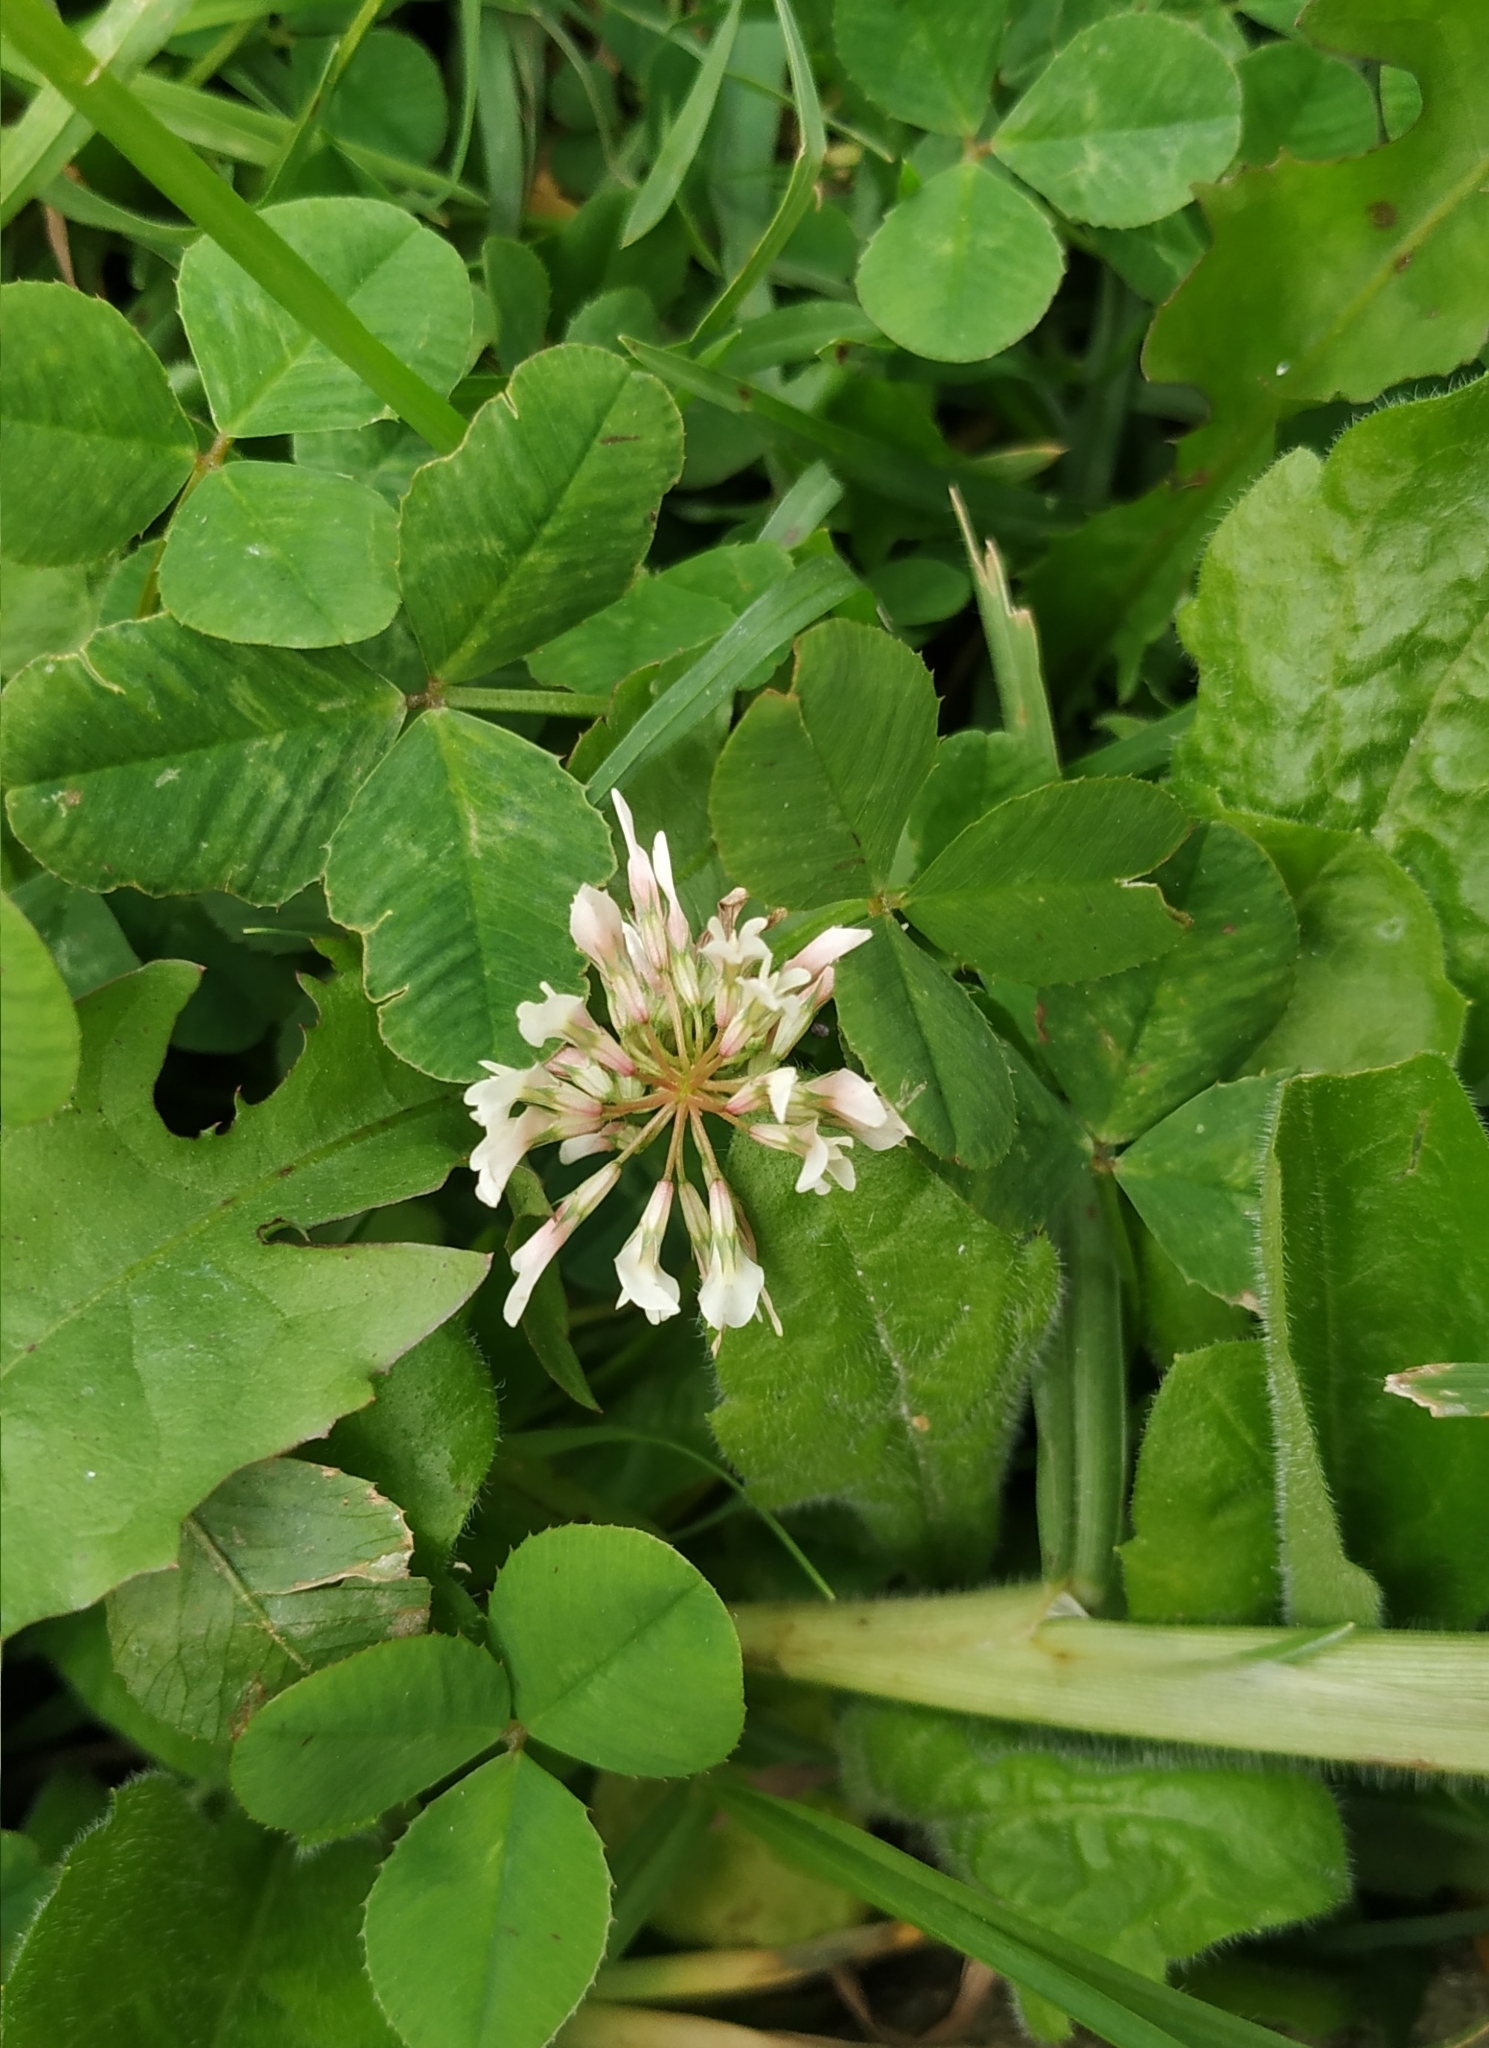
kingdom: Plantae
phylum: Tracheophyta
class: Magnoliopsida
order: Fabales
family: Fabaceae
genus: Trifolium
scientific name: Trifolium repens
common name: White clover
